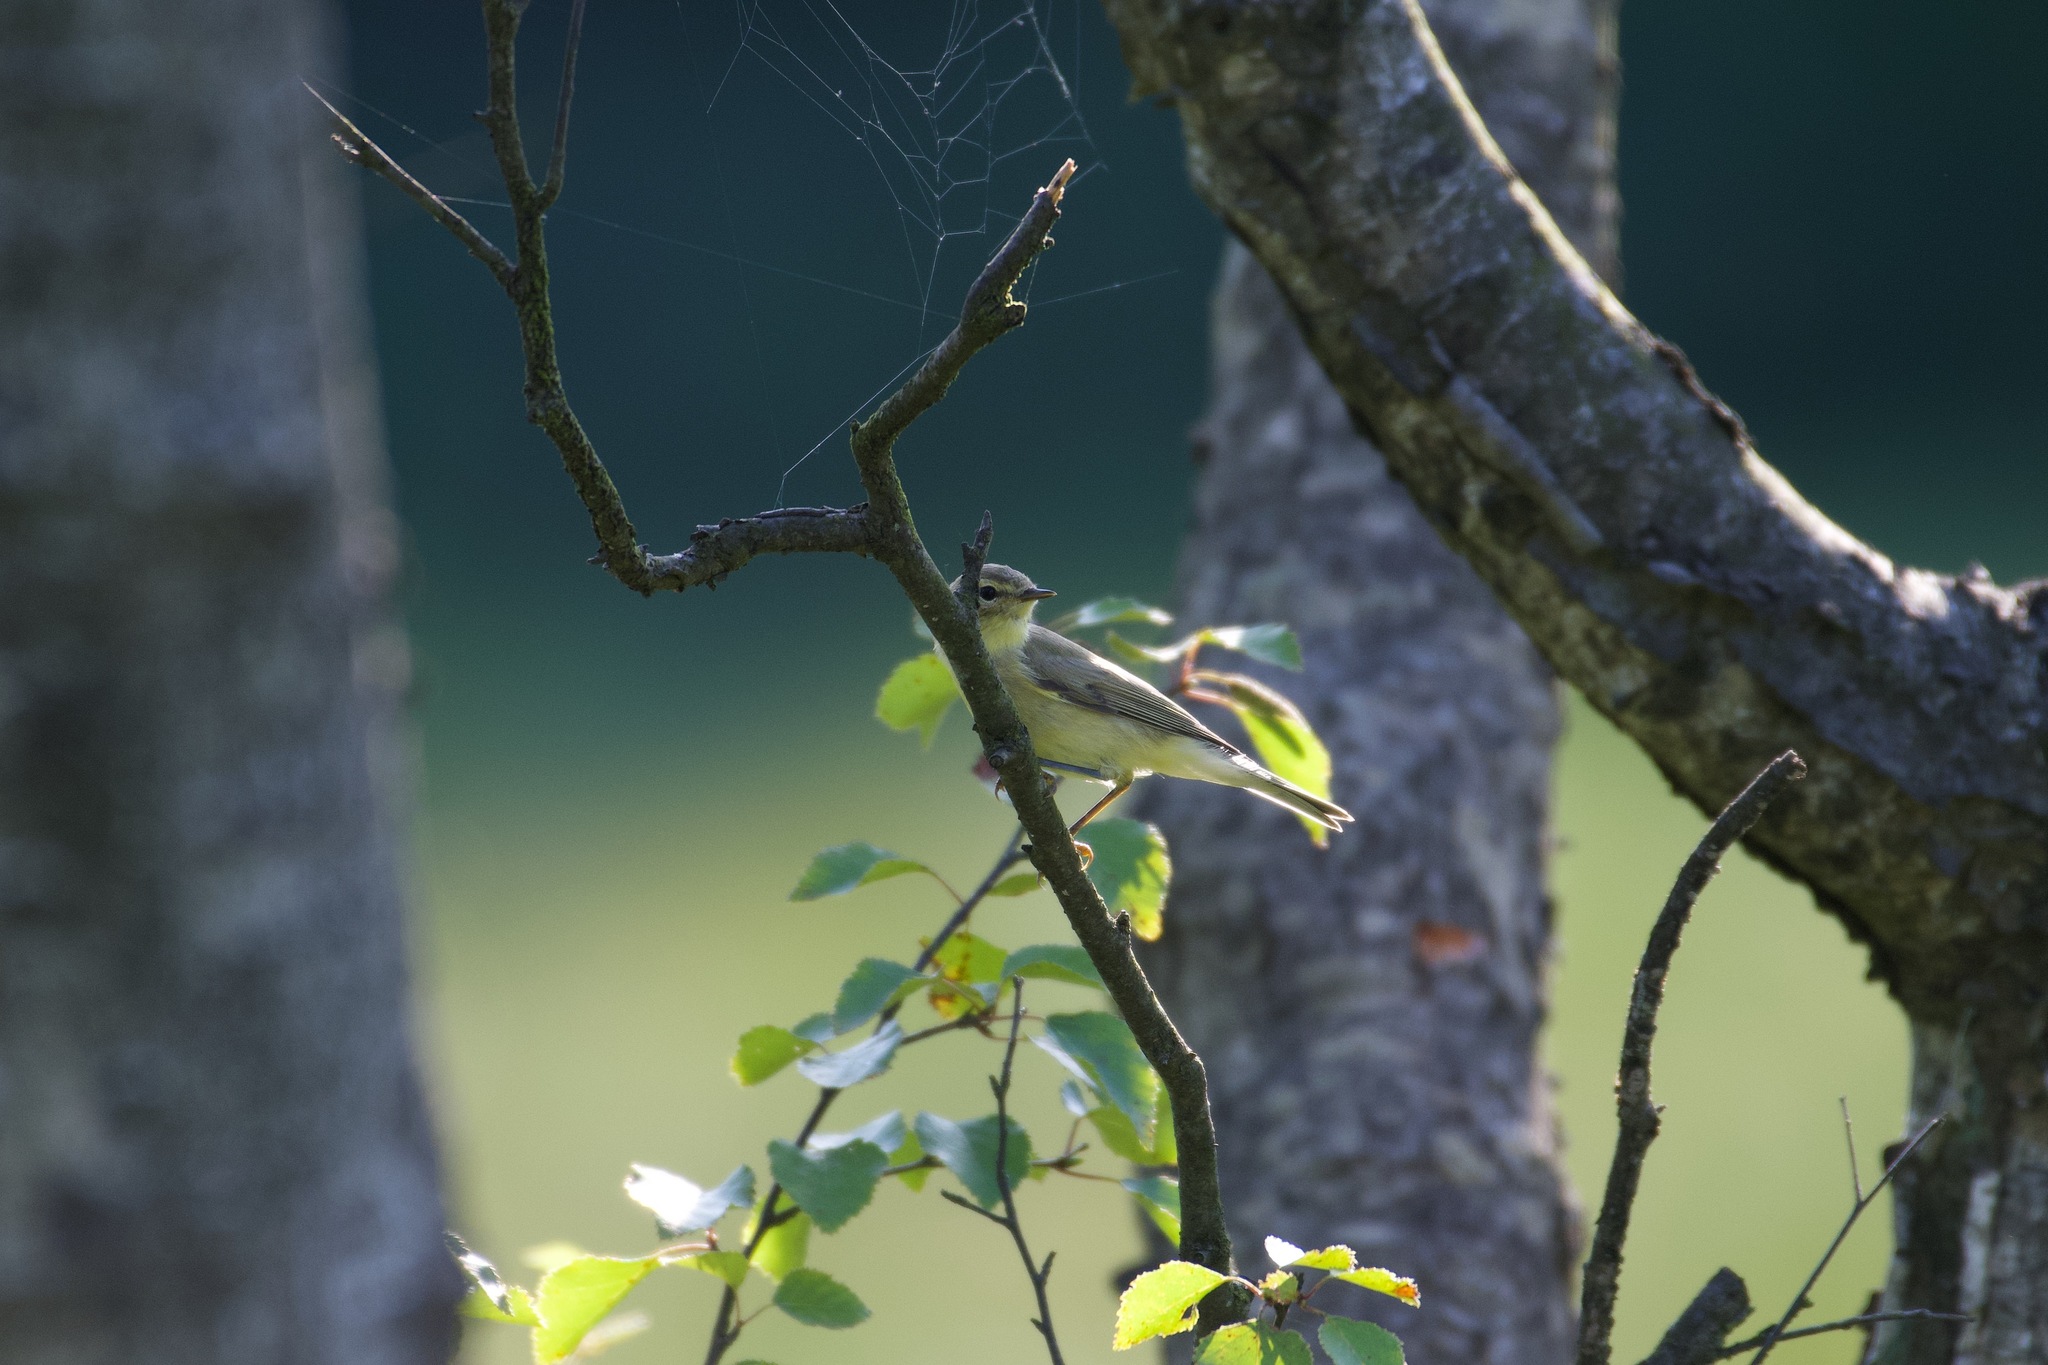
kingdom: Animalia
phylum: Chordata
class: Aves
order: Passeriformes
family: Phylloscopidae
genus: Phylloscopus
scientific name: Phylloscopus trochilus
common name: Willow warbler
